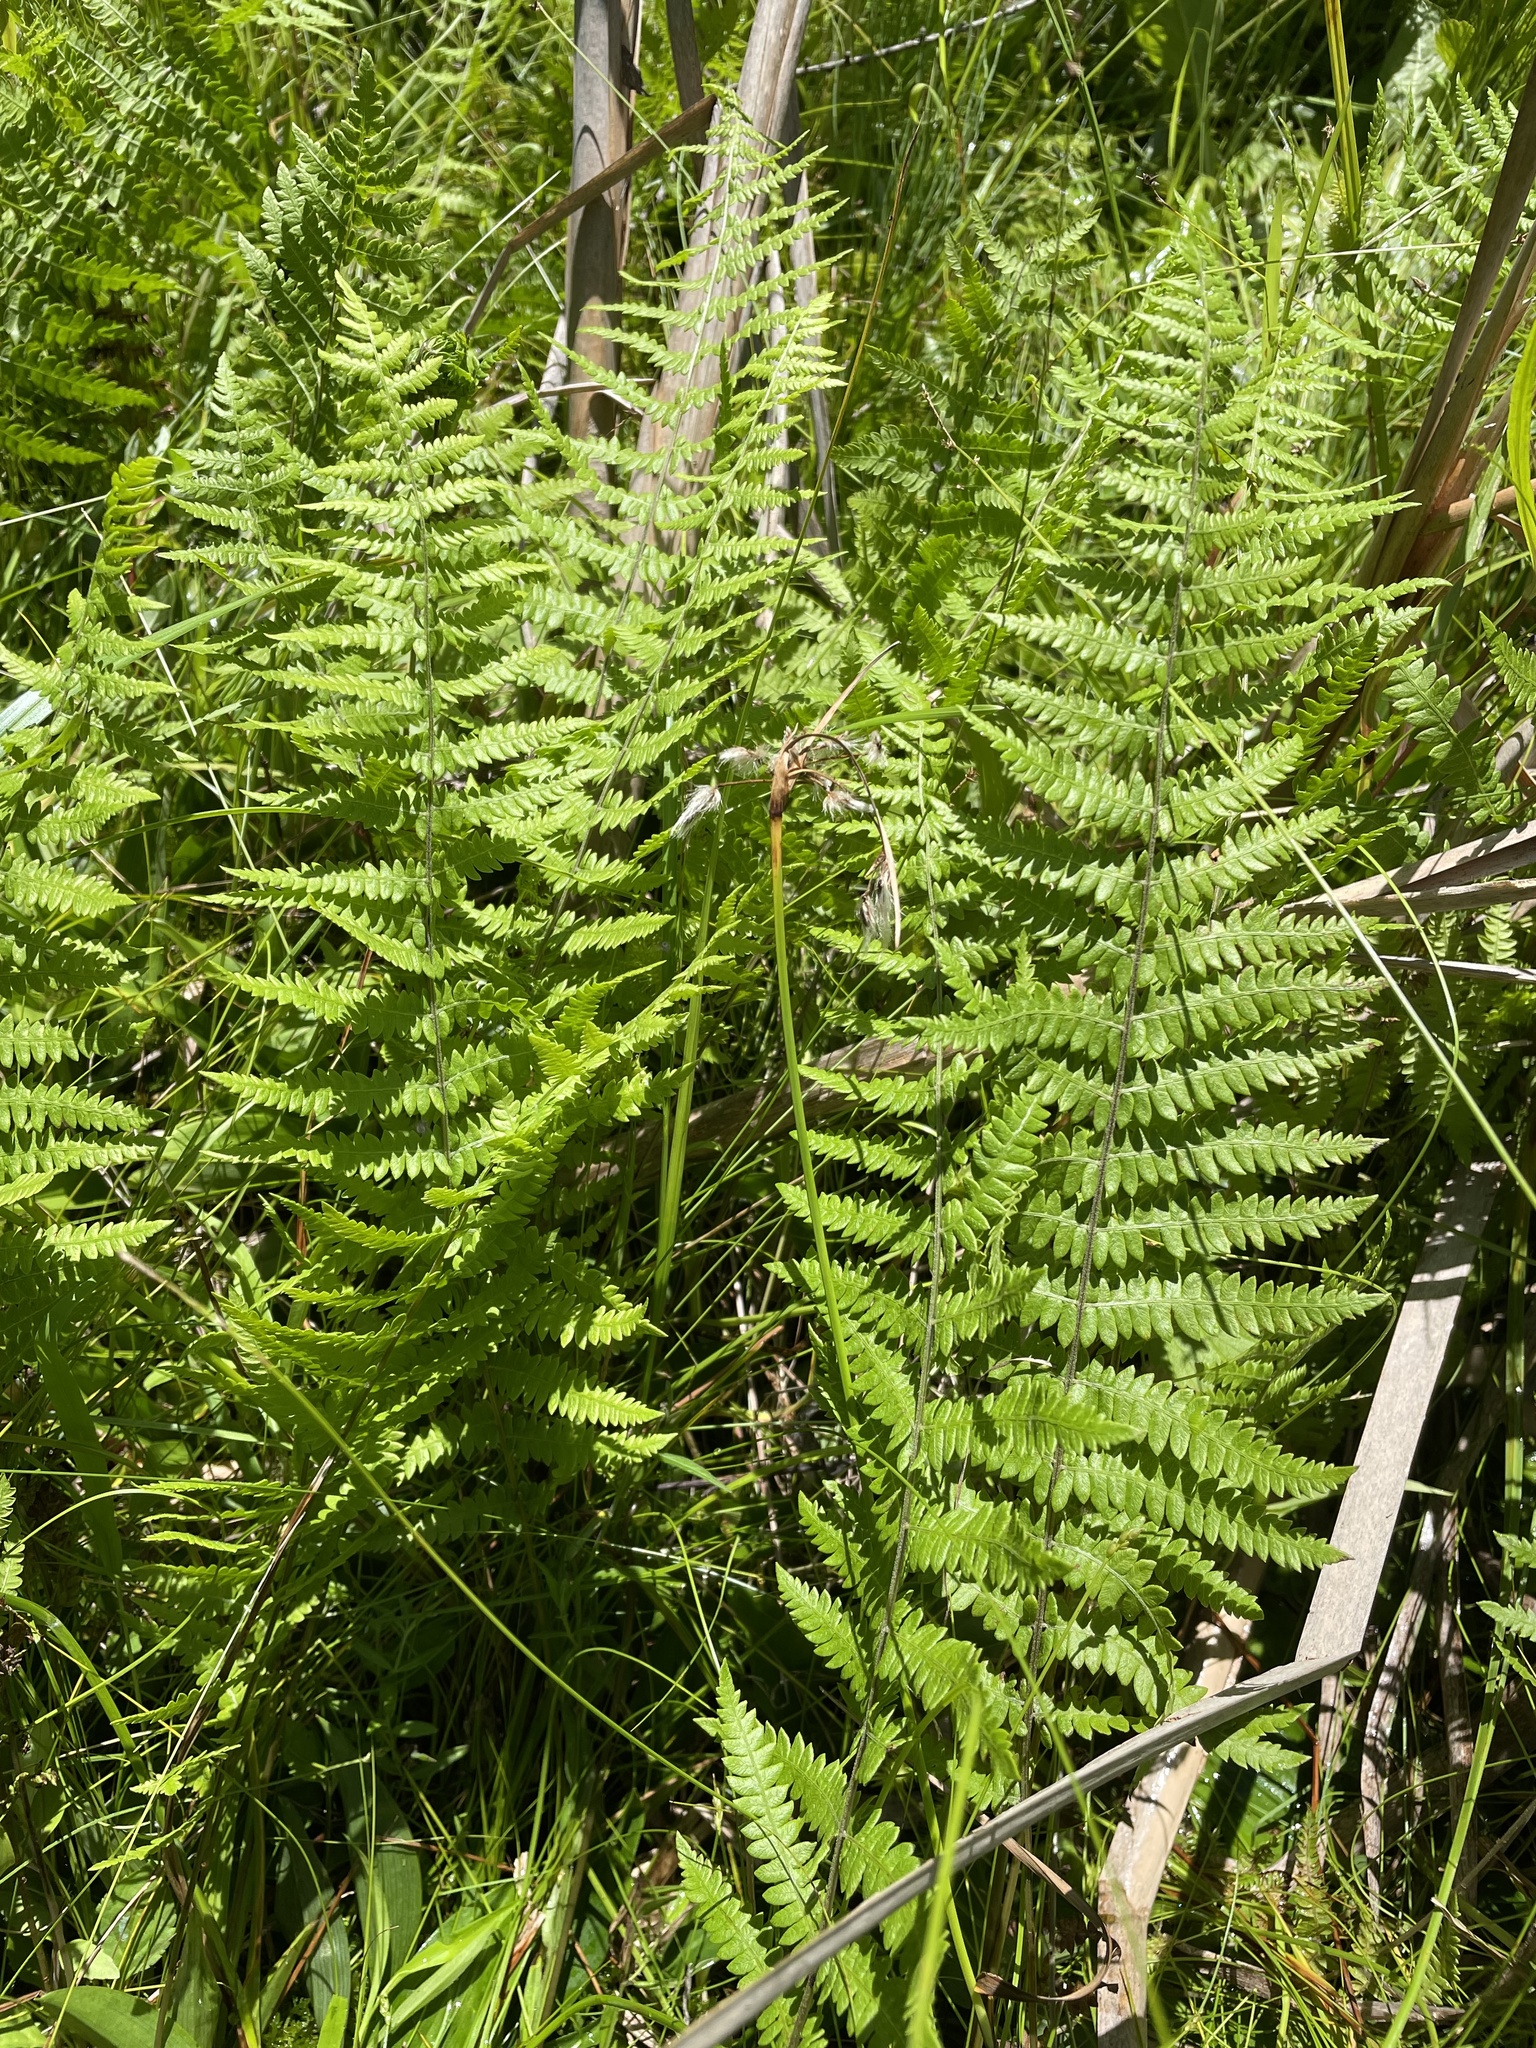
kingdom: Plantae
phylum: Tracheophyta
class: Polypodiopsida
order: Polypodiales
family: Thelypteridaceae
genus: Thelypteris
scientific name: Thelypteris palustris
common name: Marsh fern
